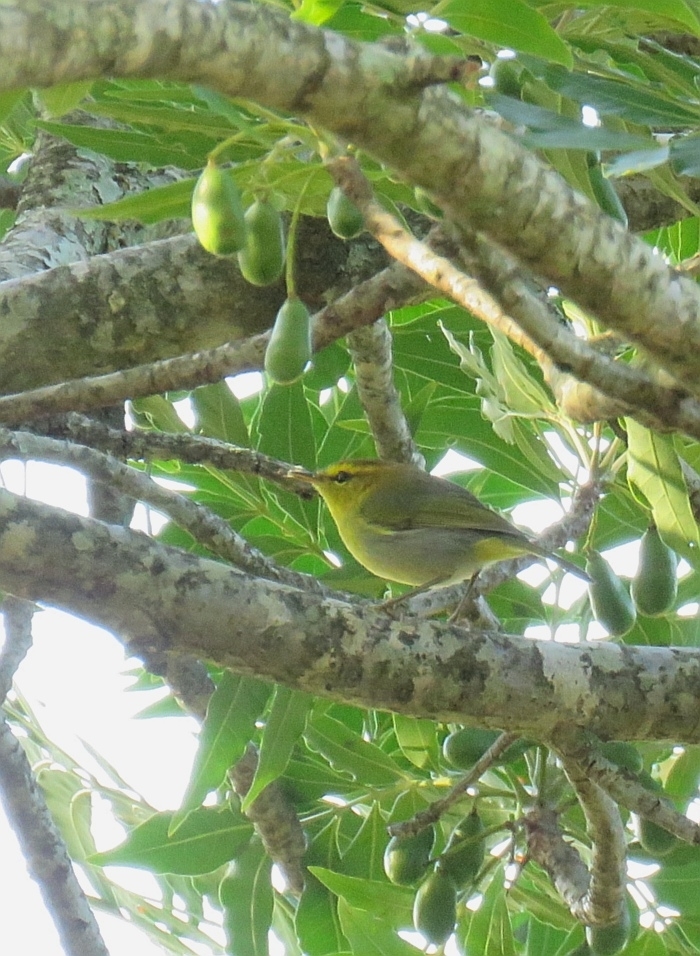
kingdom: Animalia
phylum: Chordata
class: Aves
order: Passeriformes
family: Phylloscopidae
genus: Phylloscopus
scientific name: Phylloscopus ruficapilla
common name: Yellow-throated woodland warbler
